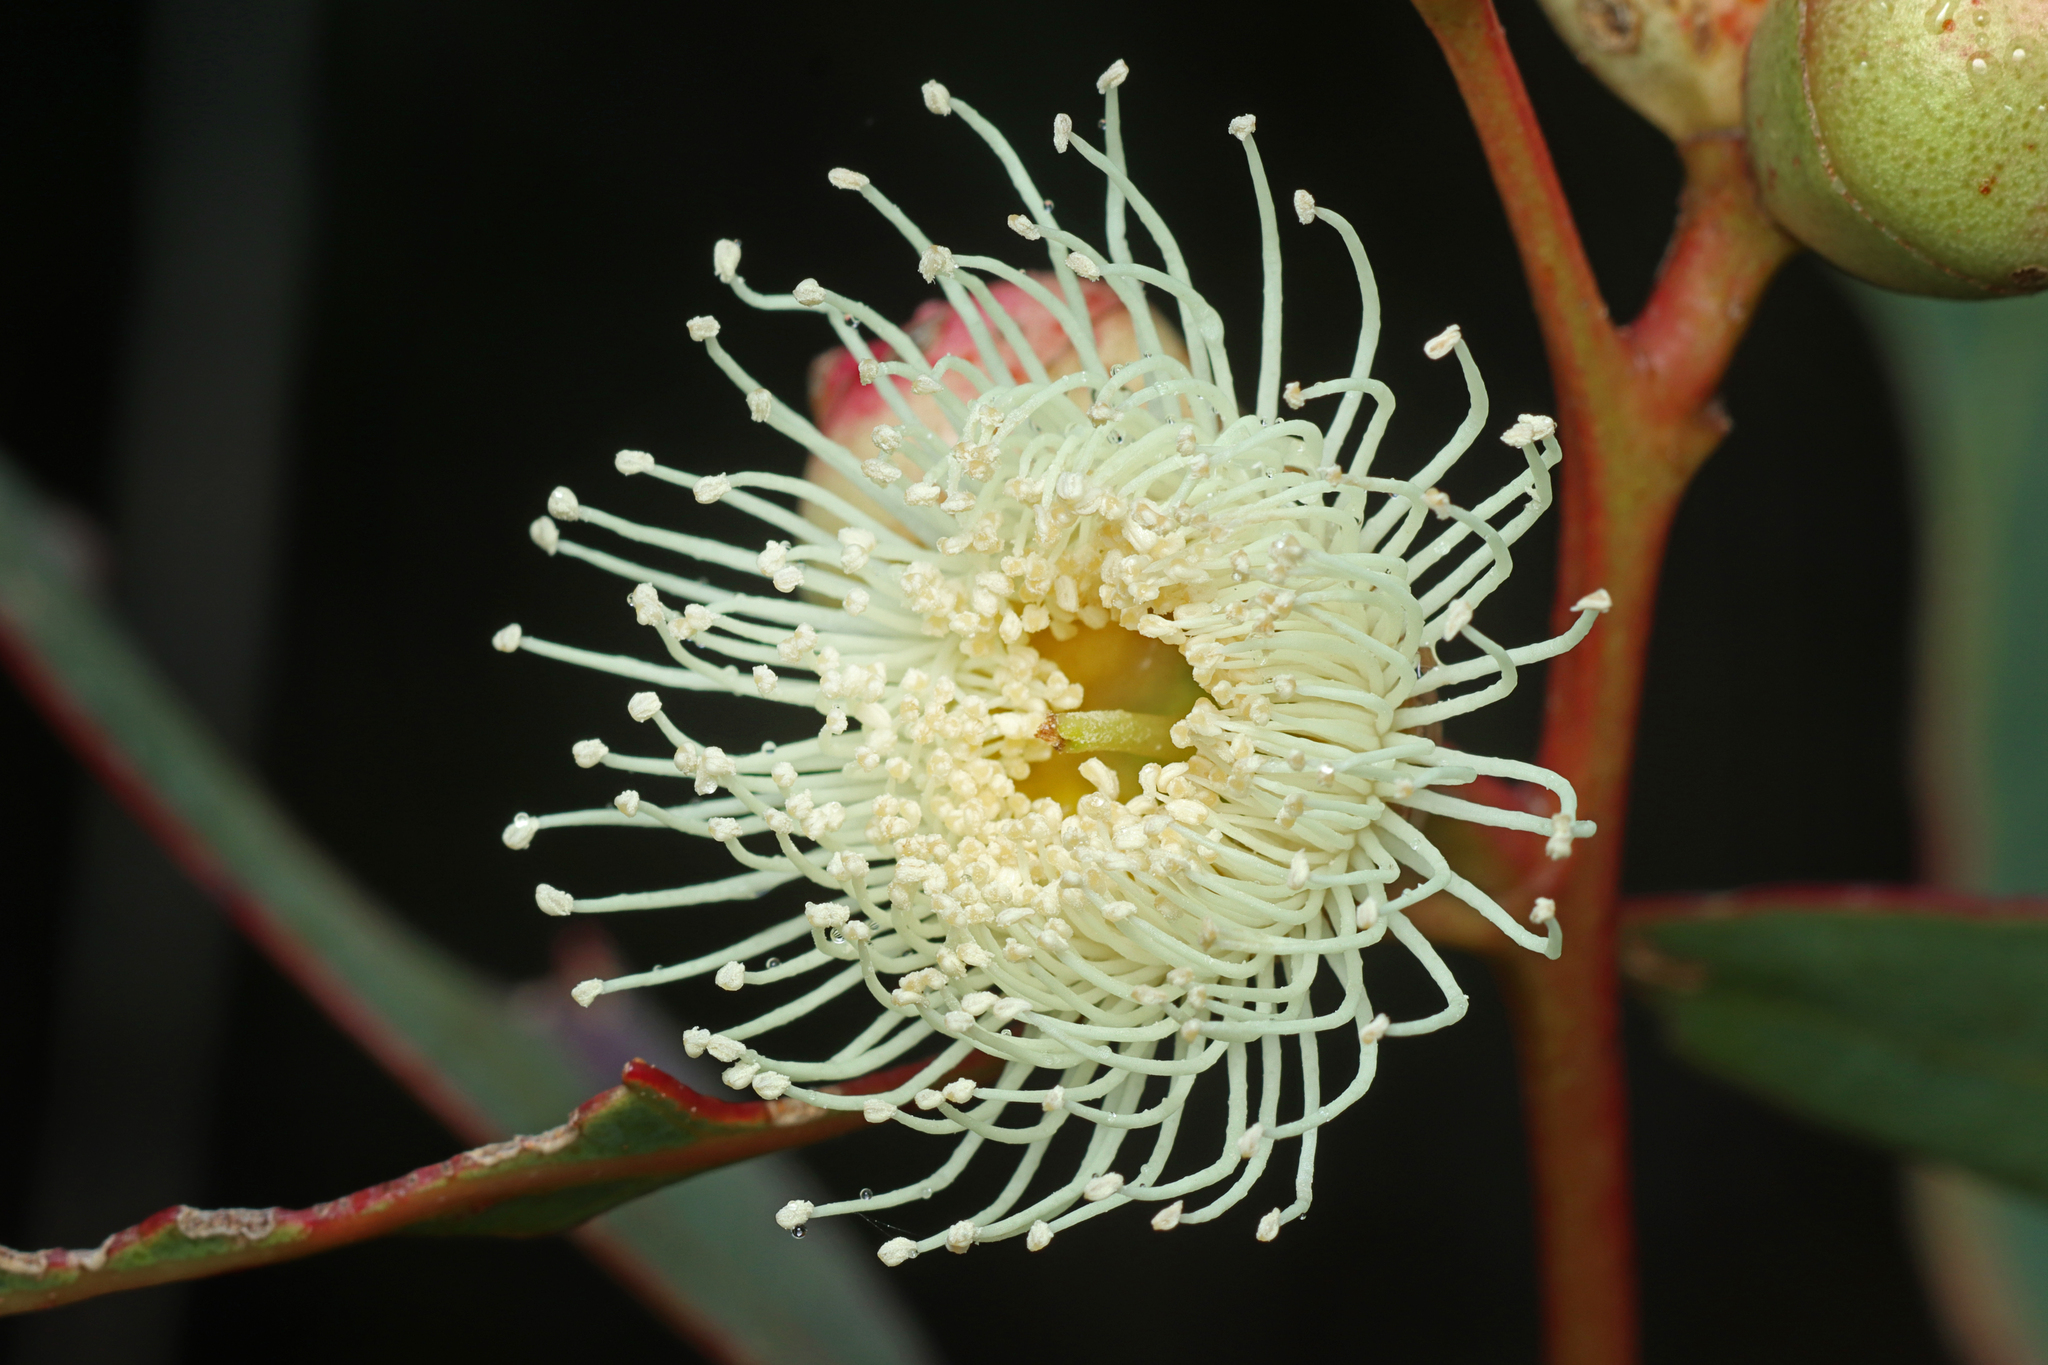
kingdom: Plantae
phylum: Tracheophyta
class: Magnoliopsida
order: Myrtales
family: Myrtaceae
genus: Eucalyptus
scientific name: Eucalyptus cosmophylla
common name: Bog-gum
